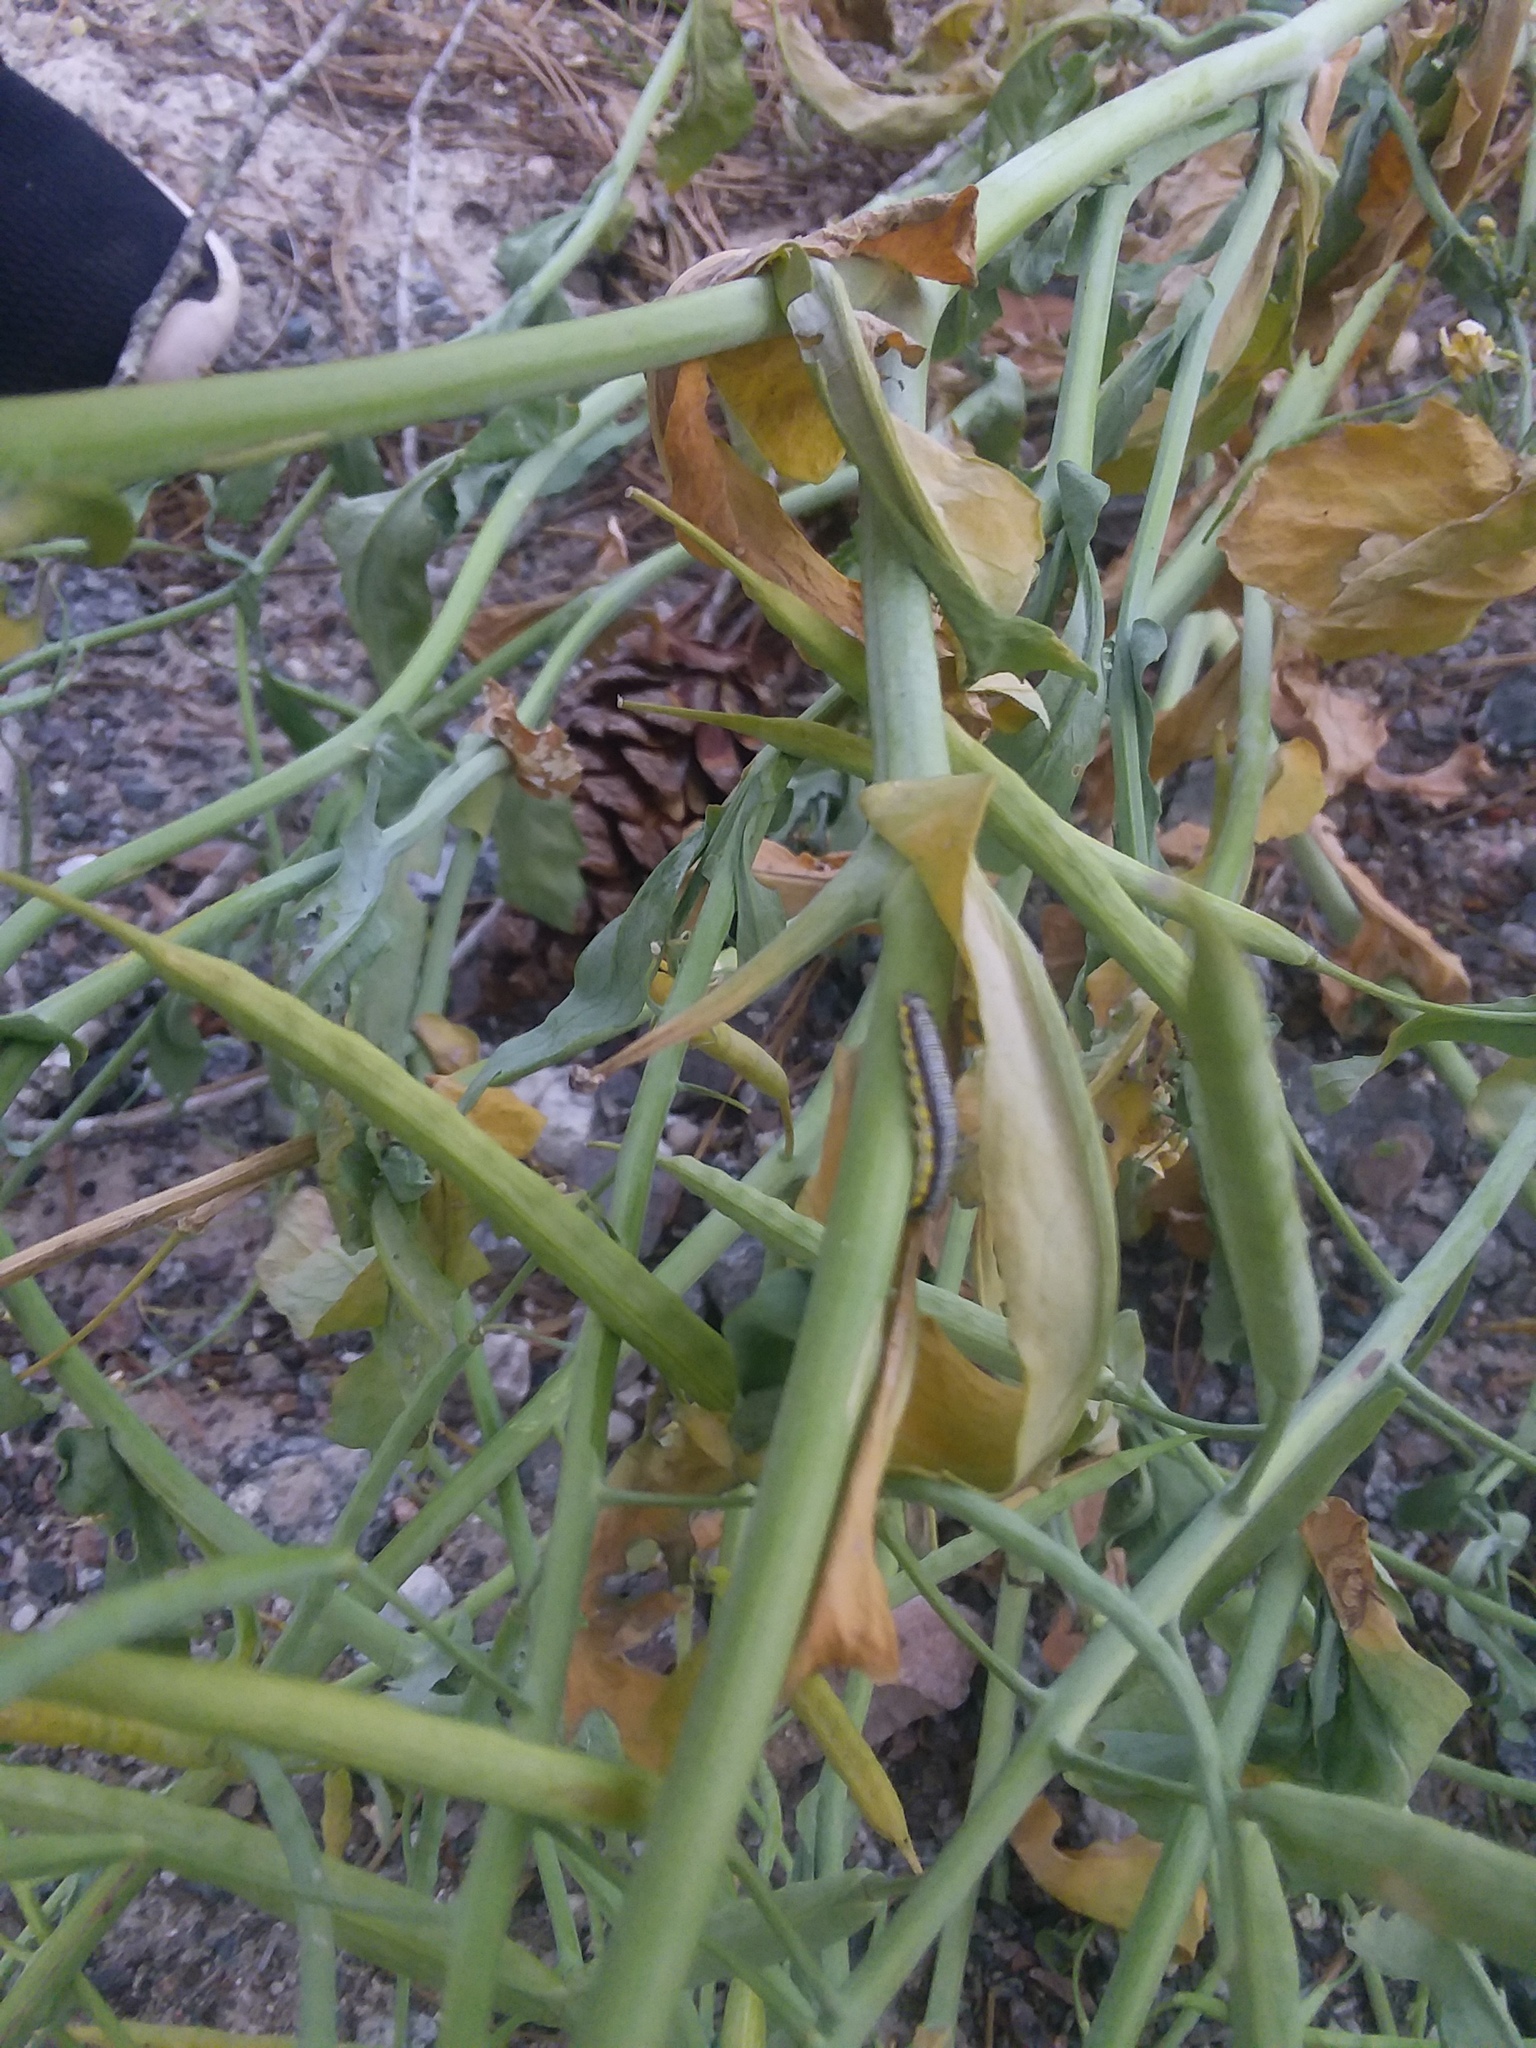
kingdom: Animalia
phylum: Arthropoda
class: Insecta
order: Lepidoptera
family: Crambidae
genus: Evergestis
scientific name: Evergestis rimosalis
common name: Cross-striped cabbageworm moth
